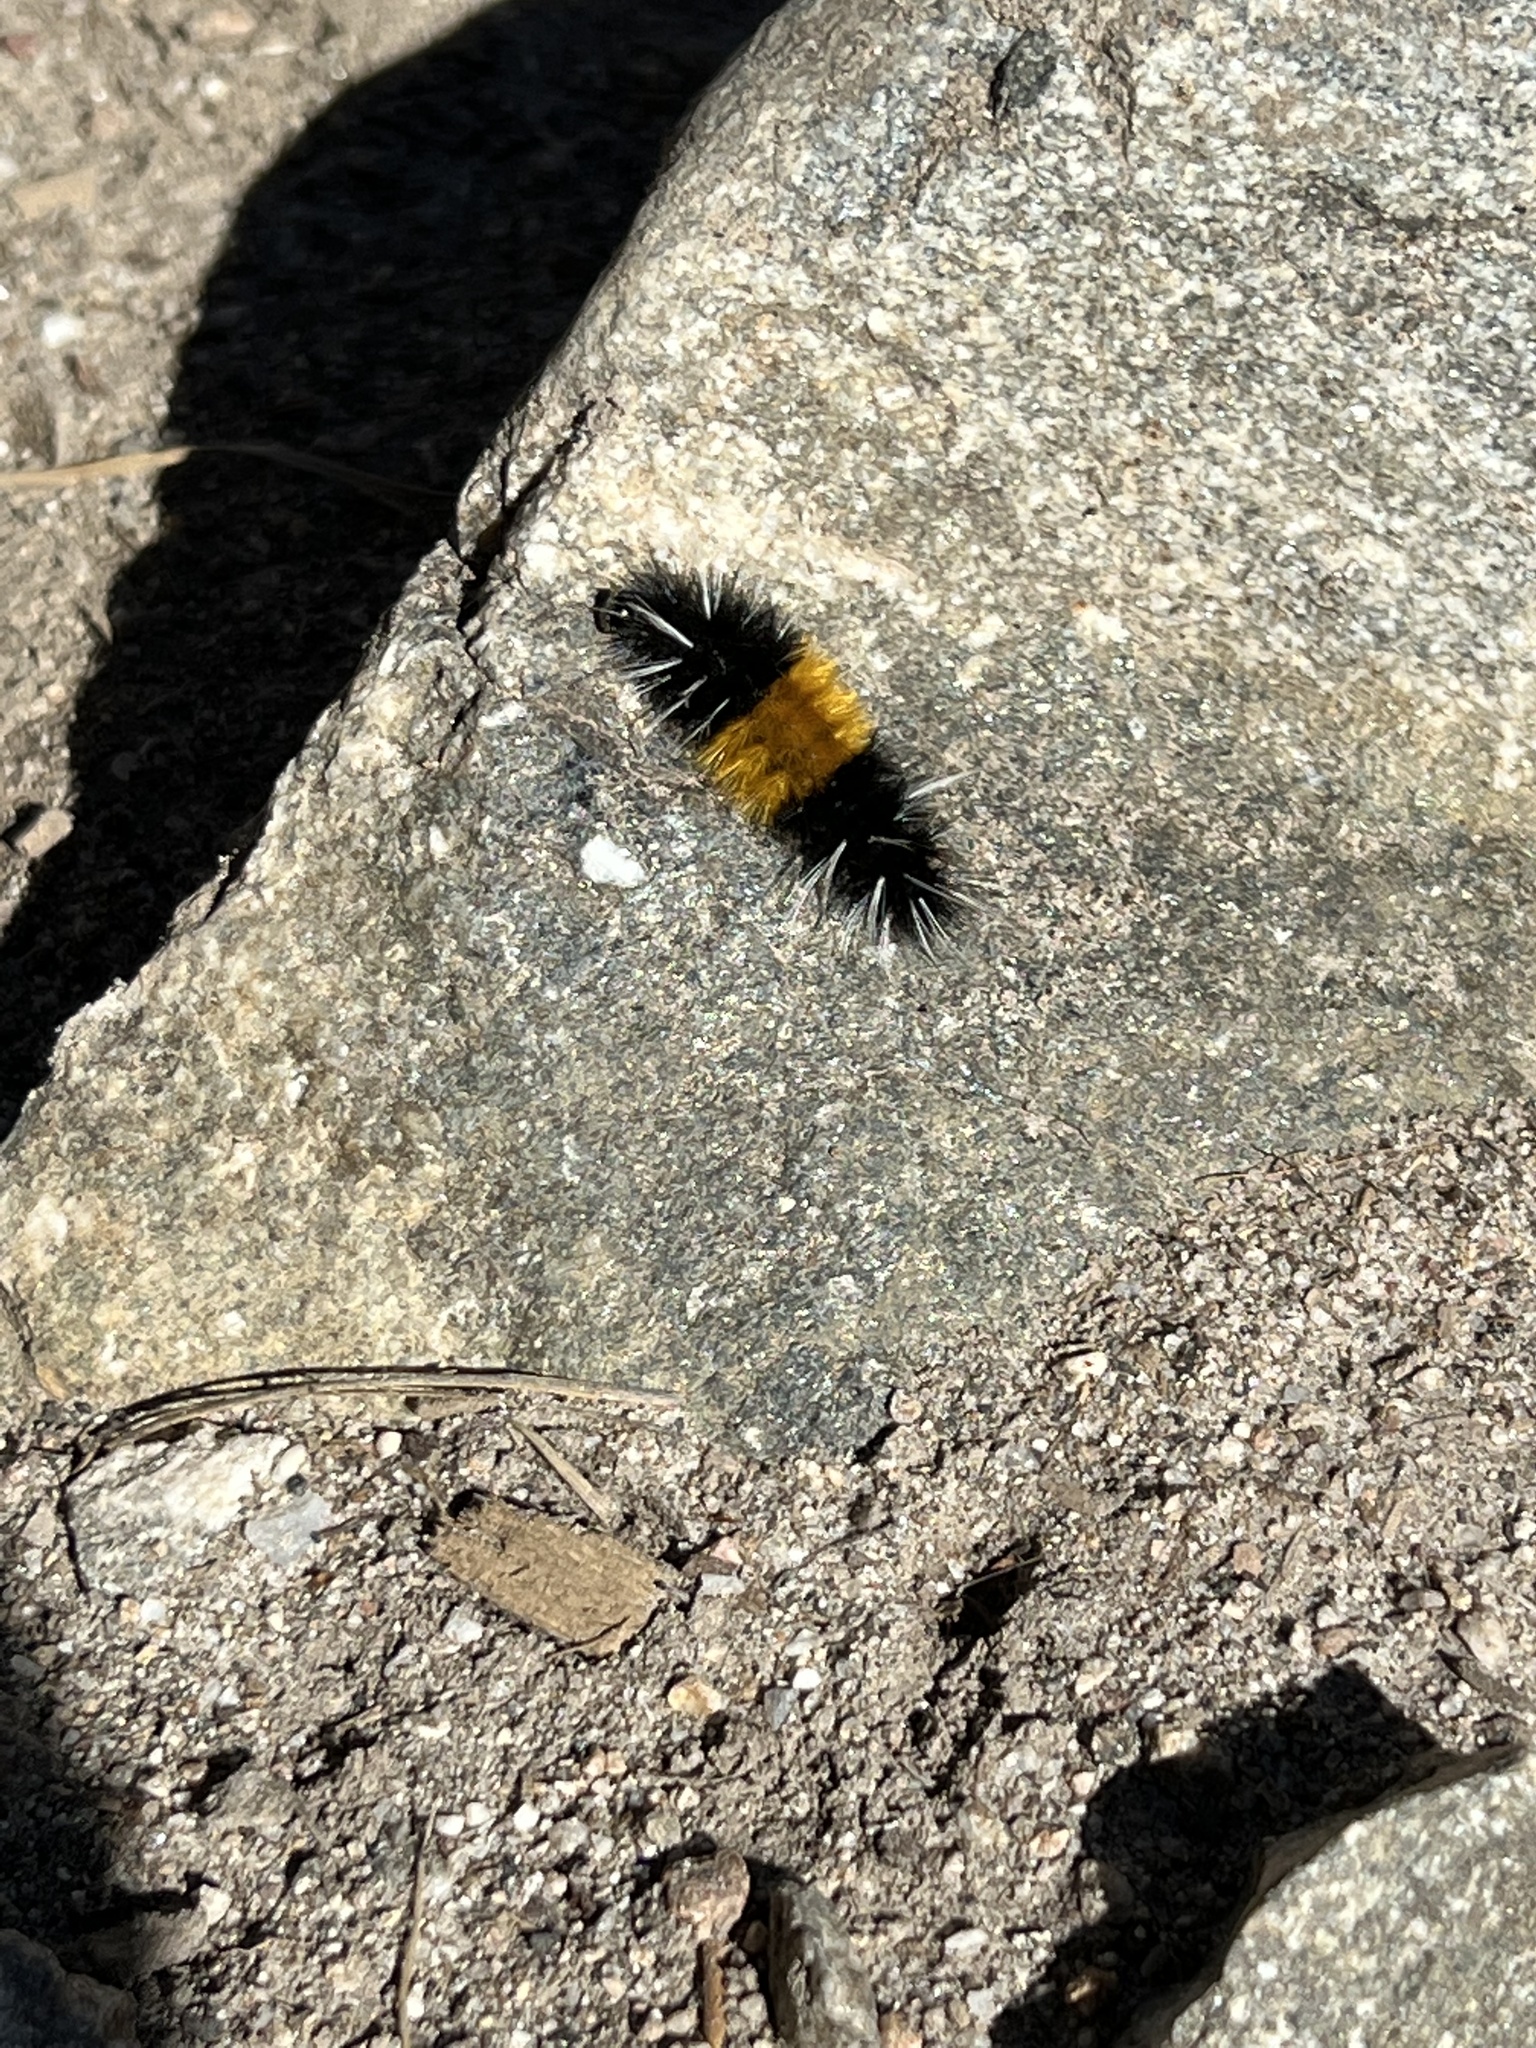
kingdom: Animalia
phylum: Arthropoda
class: Insecta
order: Lepidoptera
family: Erebidae
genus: Lophocampa
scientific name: Lophocampa maculata
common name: Spotted tussock moth
